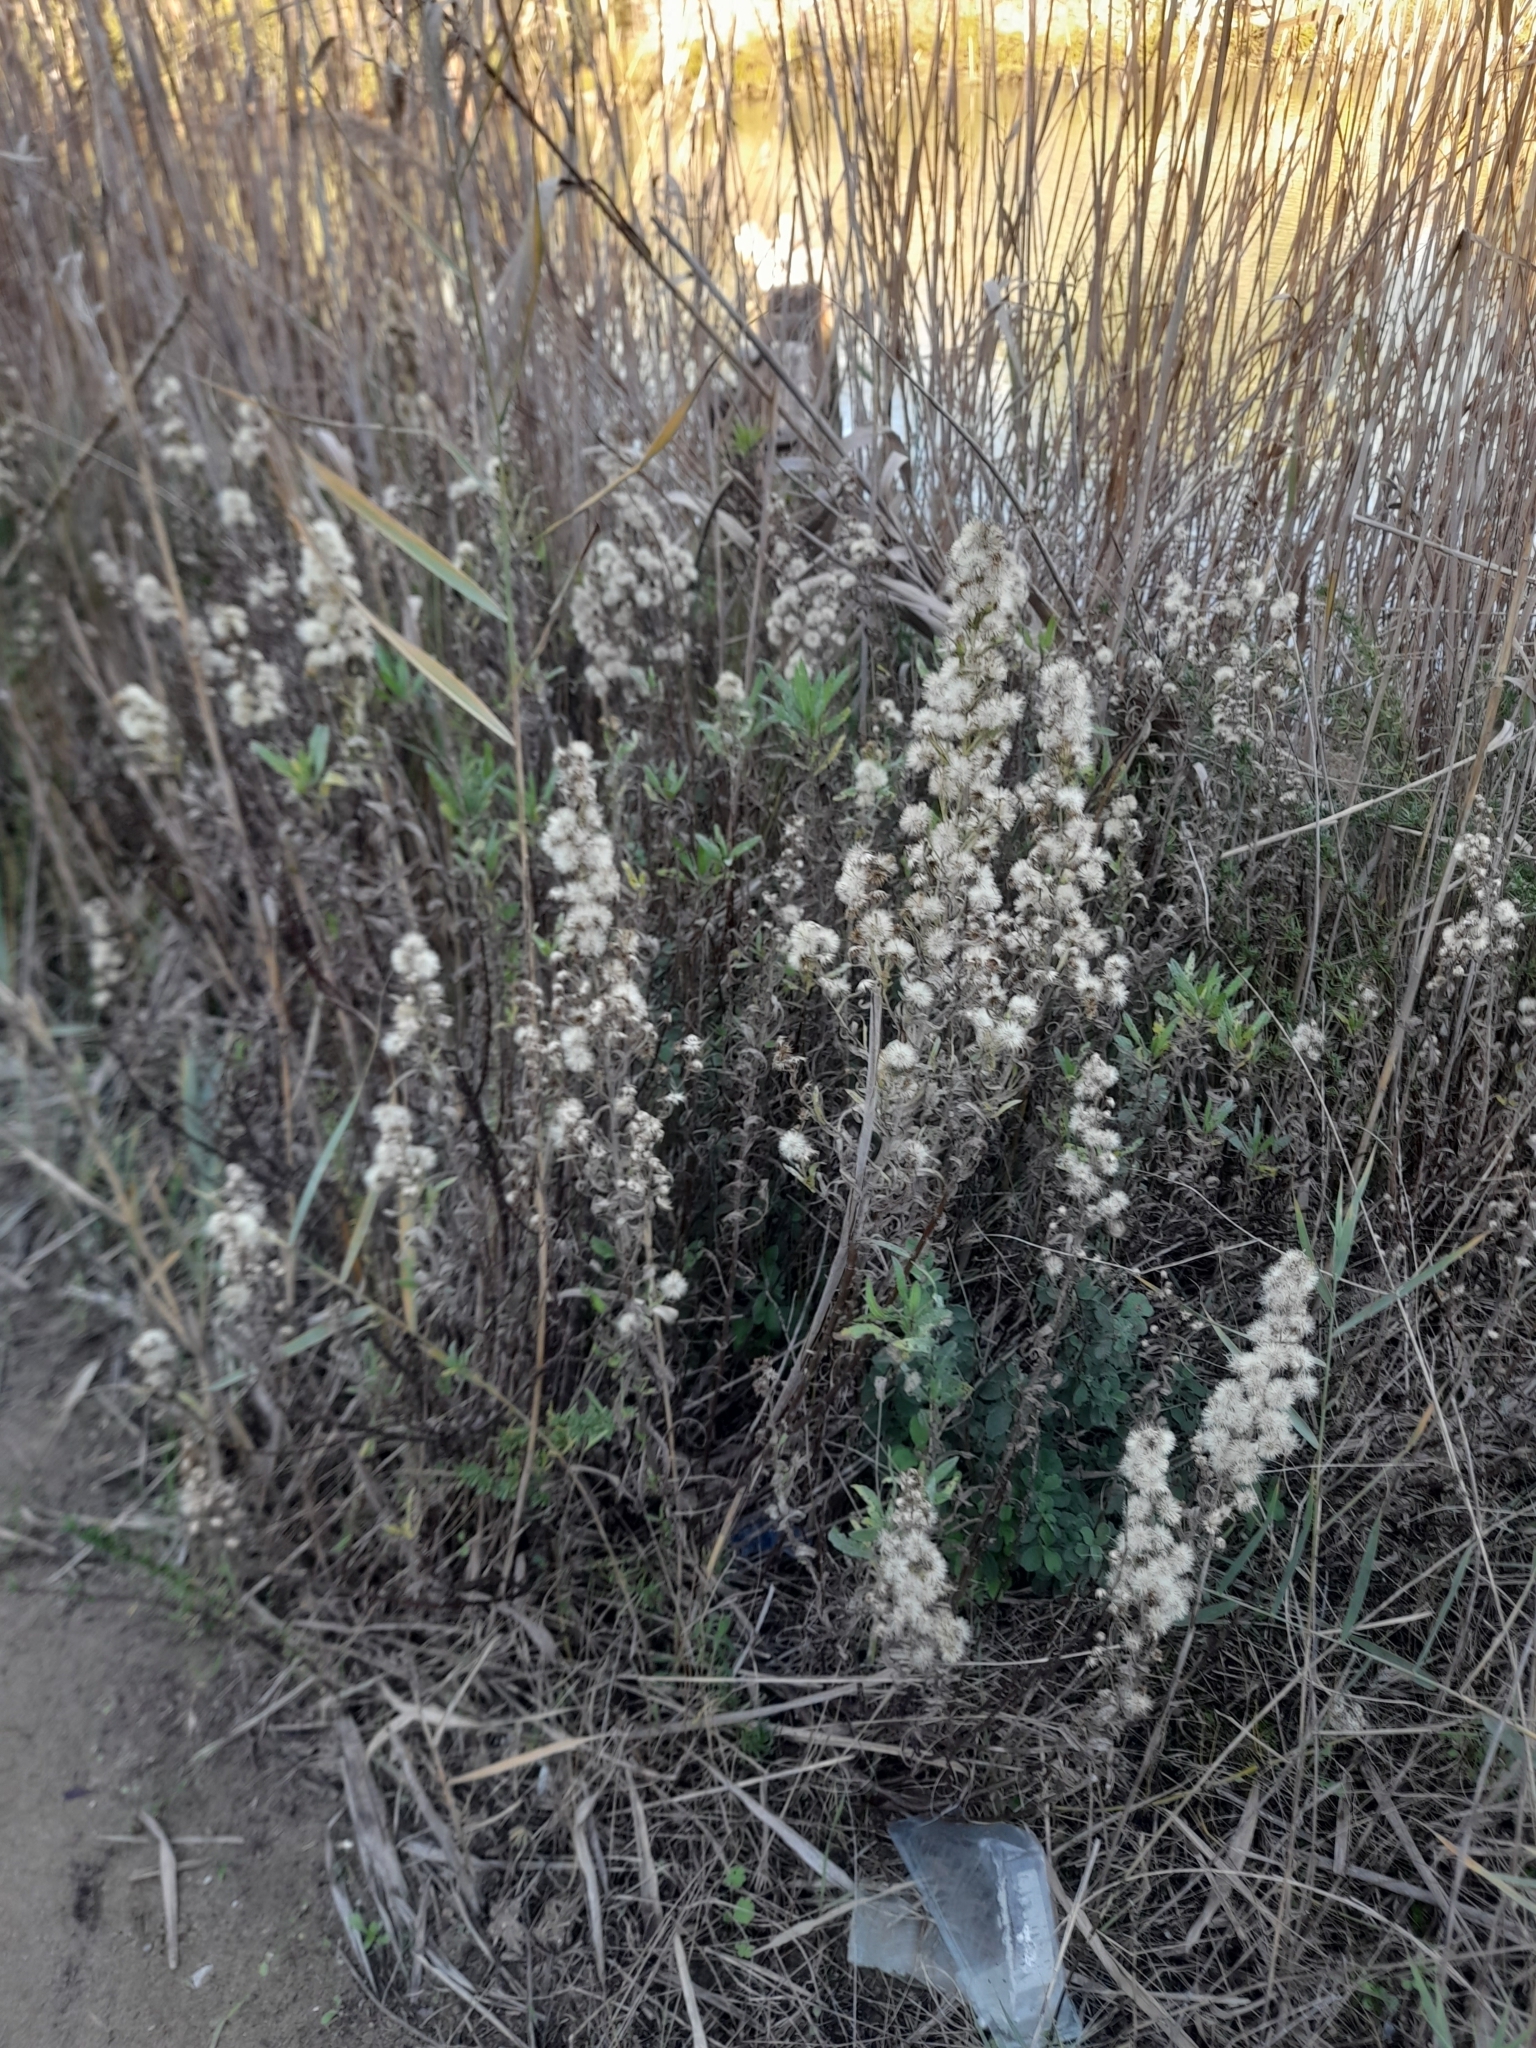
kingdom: Plantae
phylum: Tracheophyta
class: Magnoliopsida
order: Asterales
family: Asteraceae
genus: Dittrichia
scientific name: Dittrichia viscosa
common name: Woody fleabane
